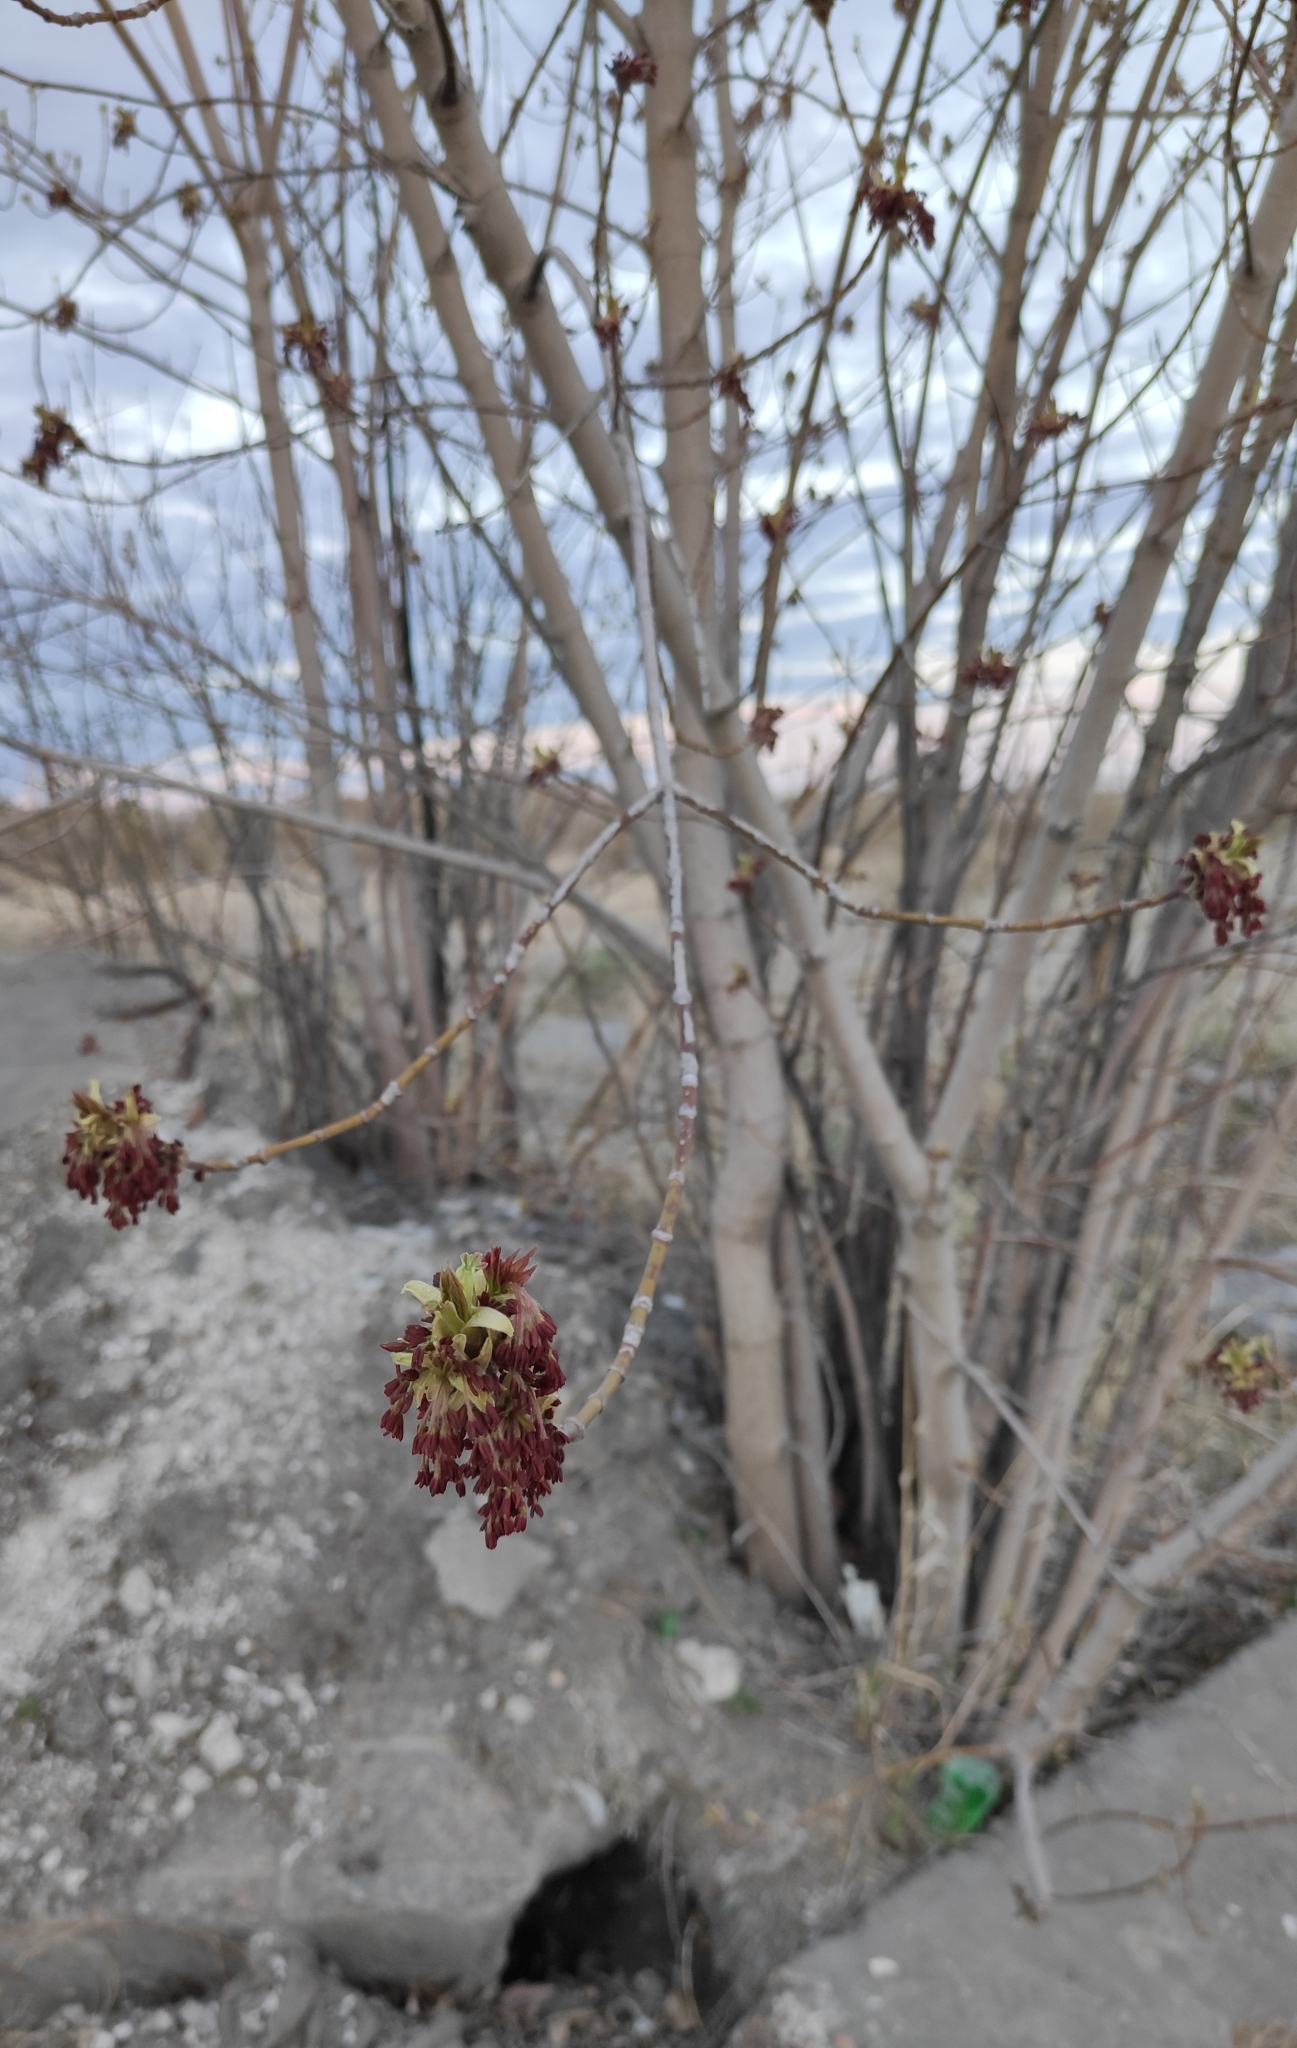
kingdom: Plantae
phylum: Tracheophyta
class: Magnoliopsida
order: Sapindales
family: Sapindaceae
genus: Acer
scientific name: Acer negundo
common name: Ashleaf maple
